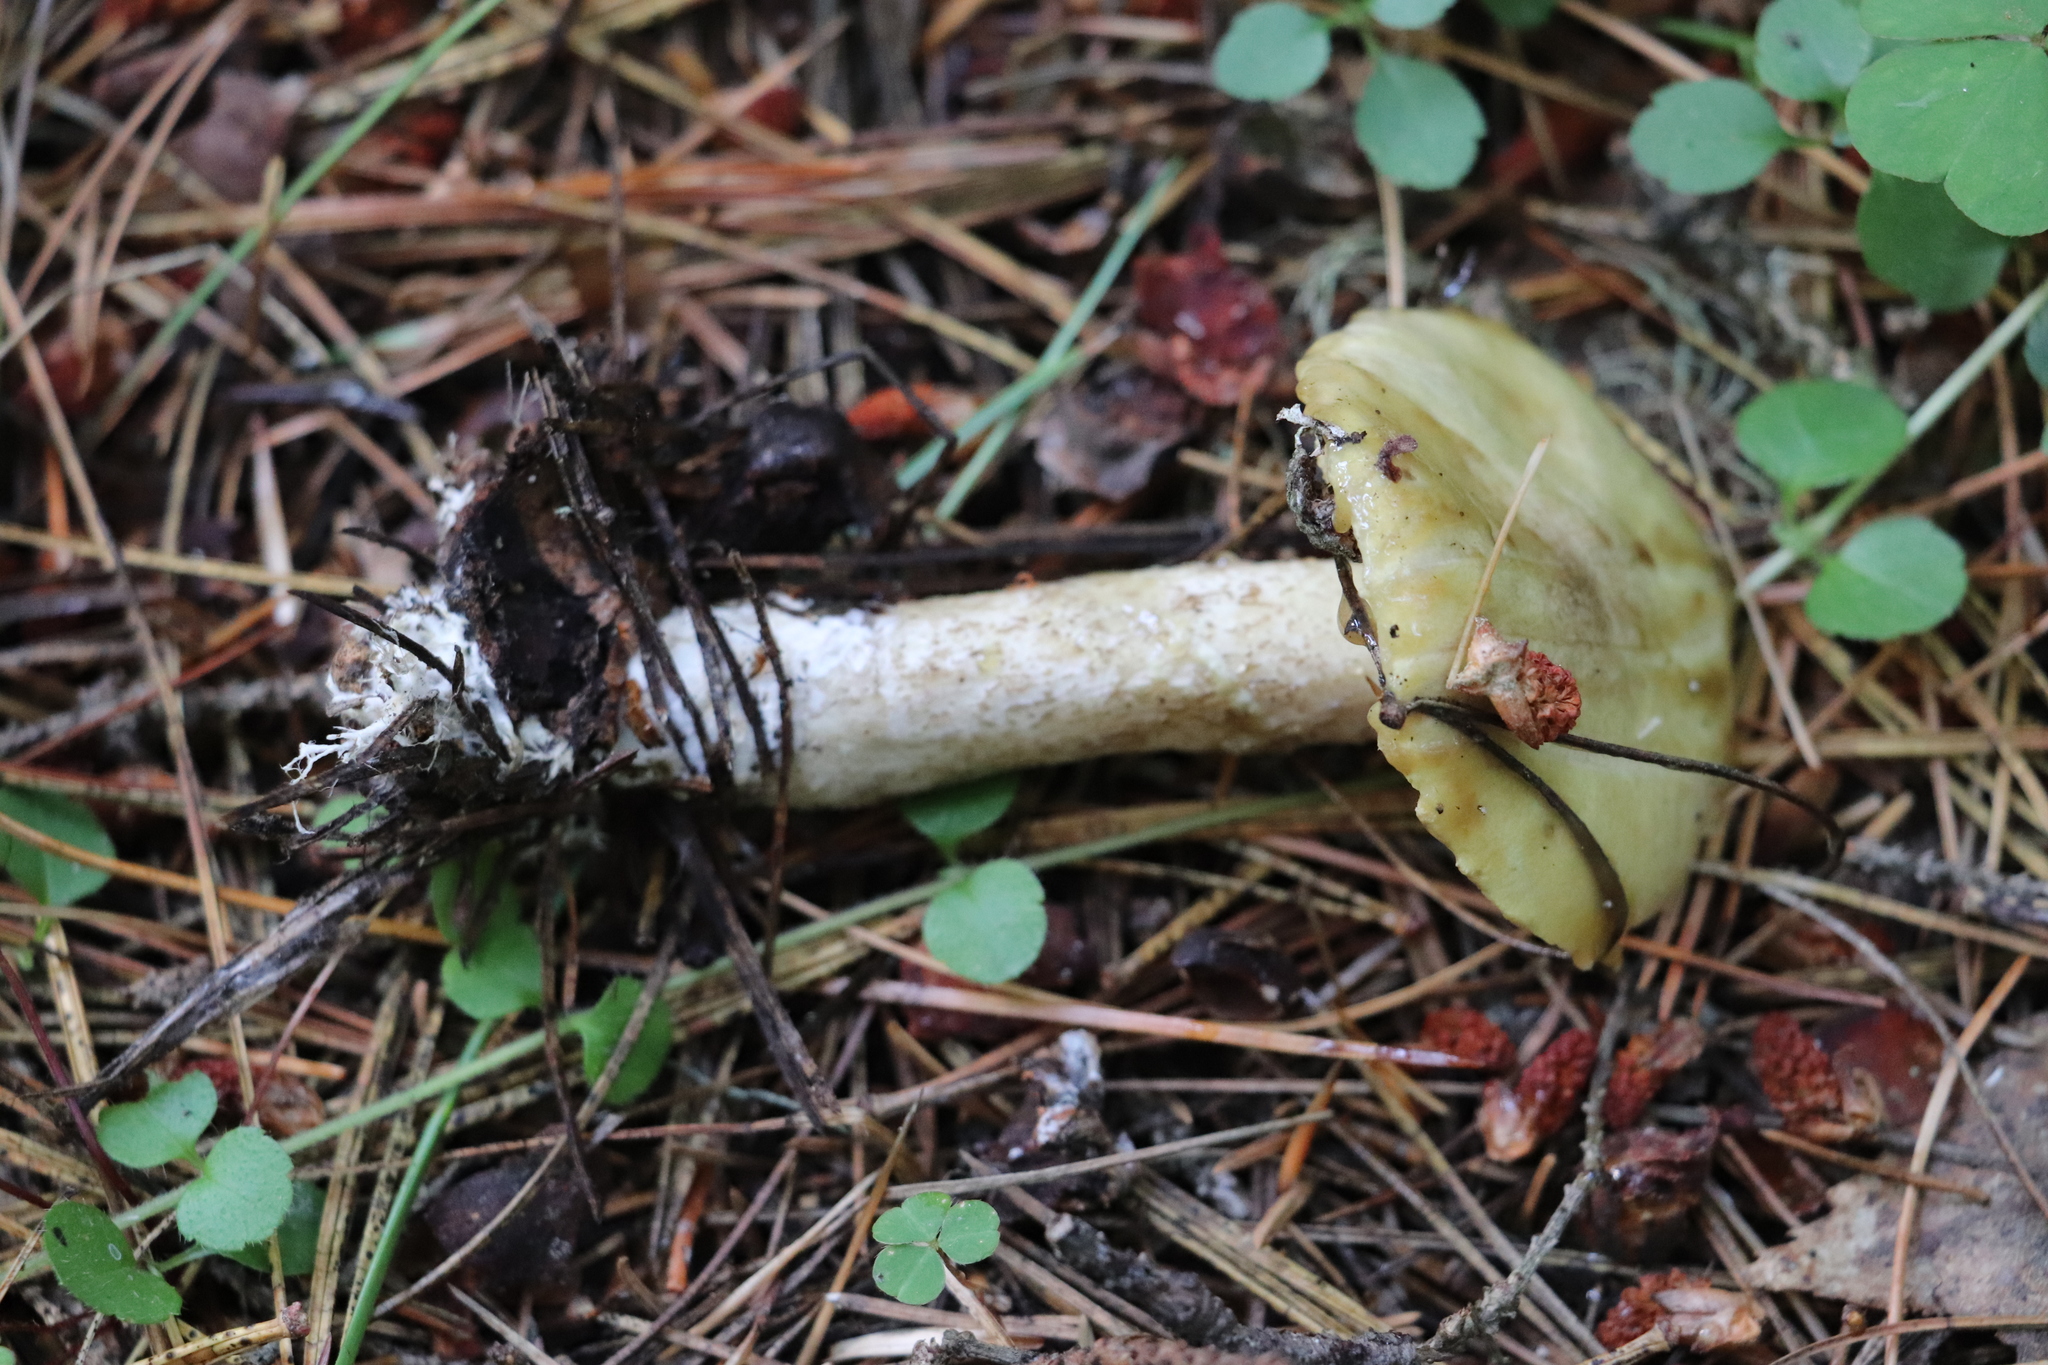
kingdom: Fungi
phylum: Basidiomycota
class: Agaricomycetes
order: Boletales
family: Suillaceae
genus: Suillus
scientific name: Suillus placidus
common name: Slippery white bolete
